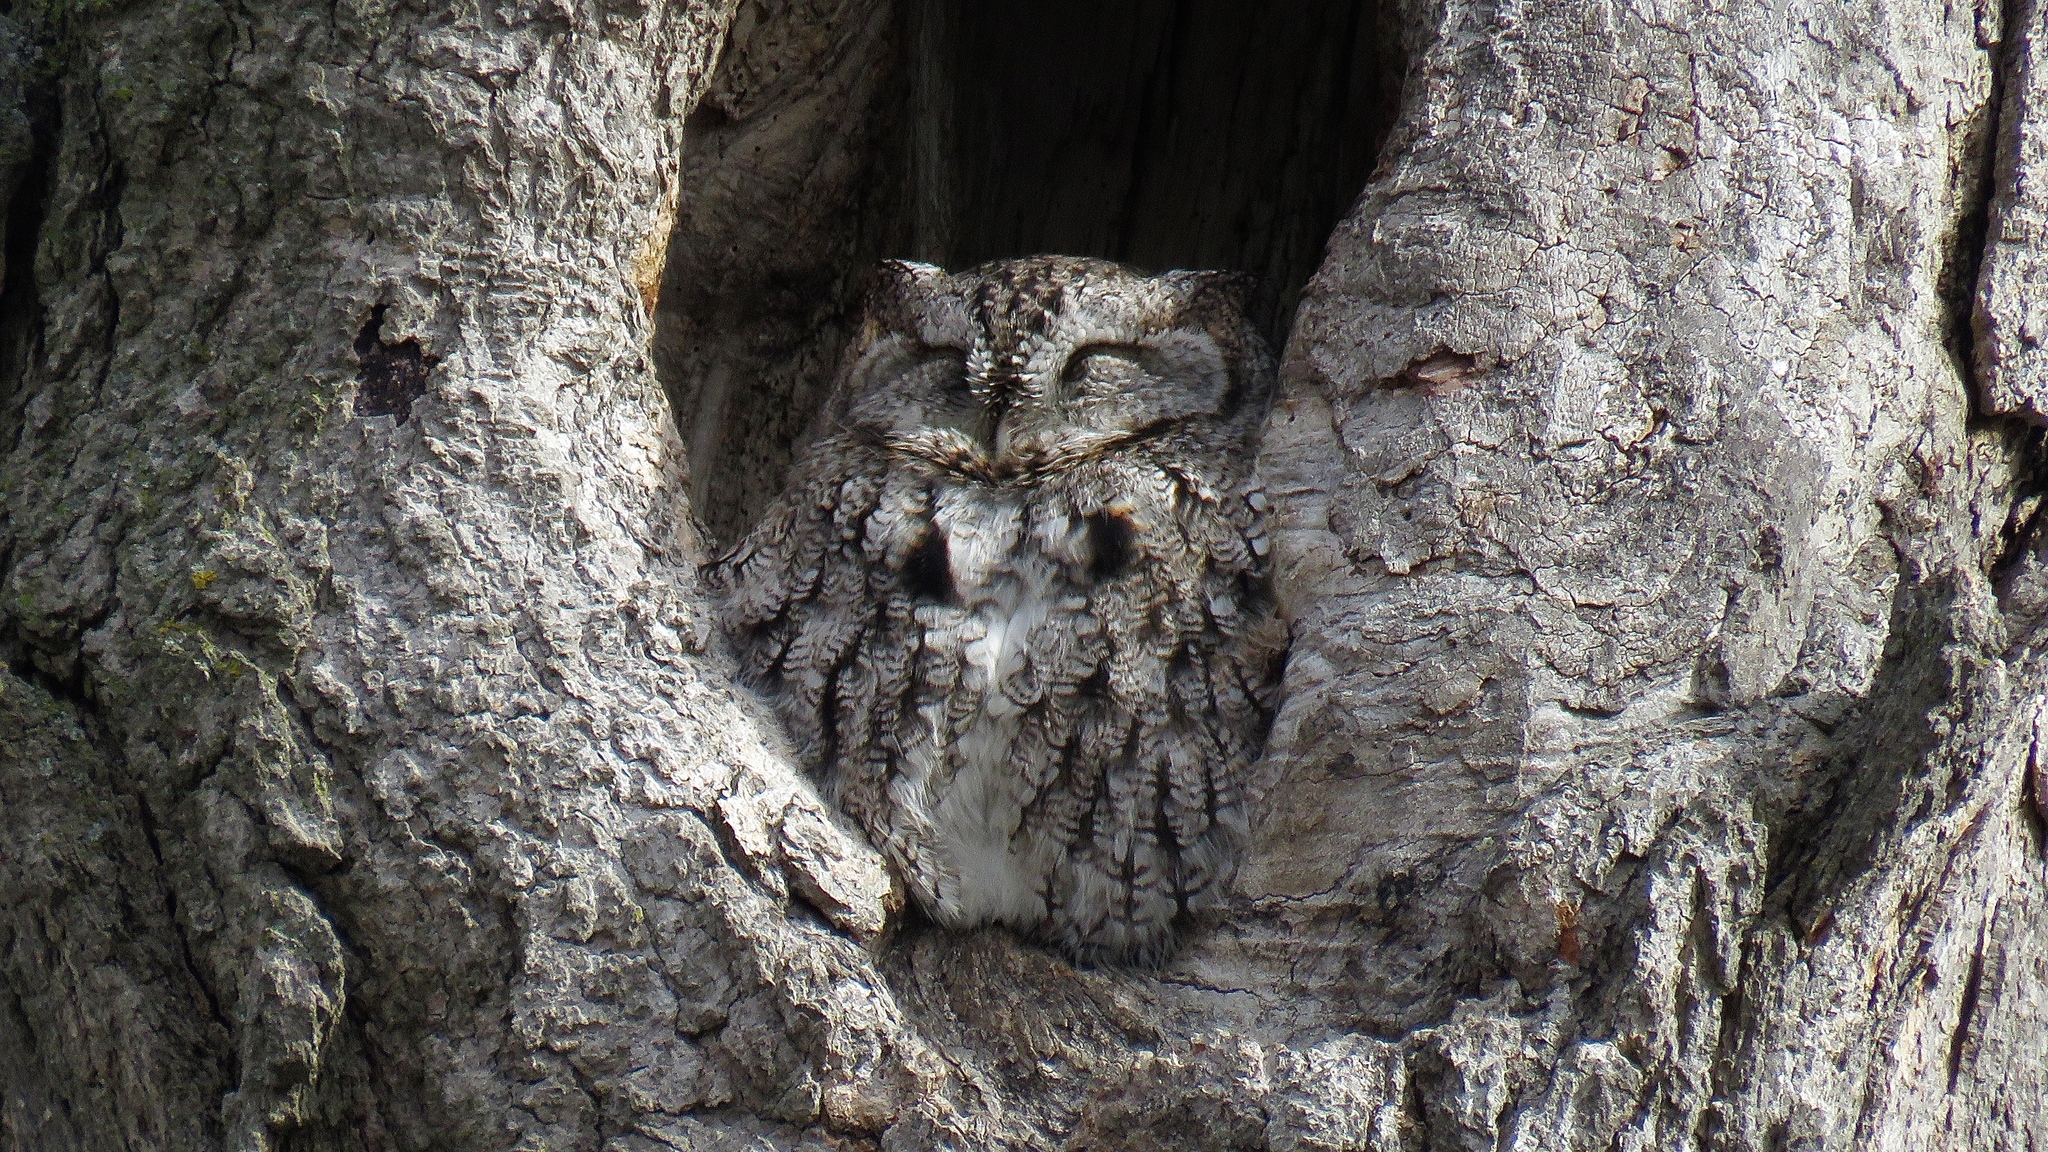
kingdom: Animalia
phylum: Chordata
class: Aves
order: Strigiformes
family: Strigidae
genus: Megascops
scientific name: Megascops asio
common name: Eastern screech-owl
